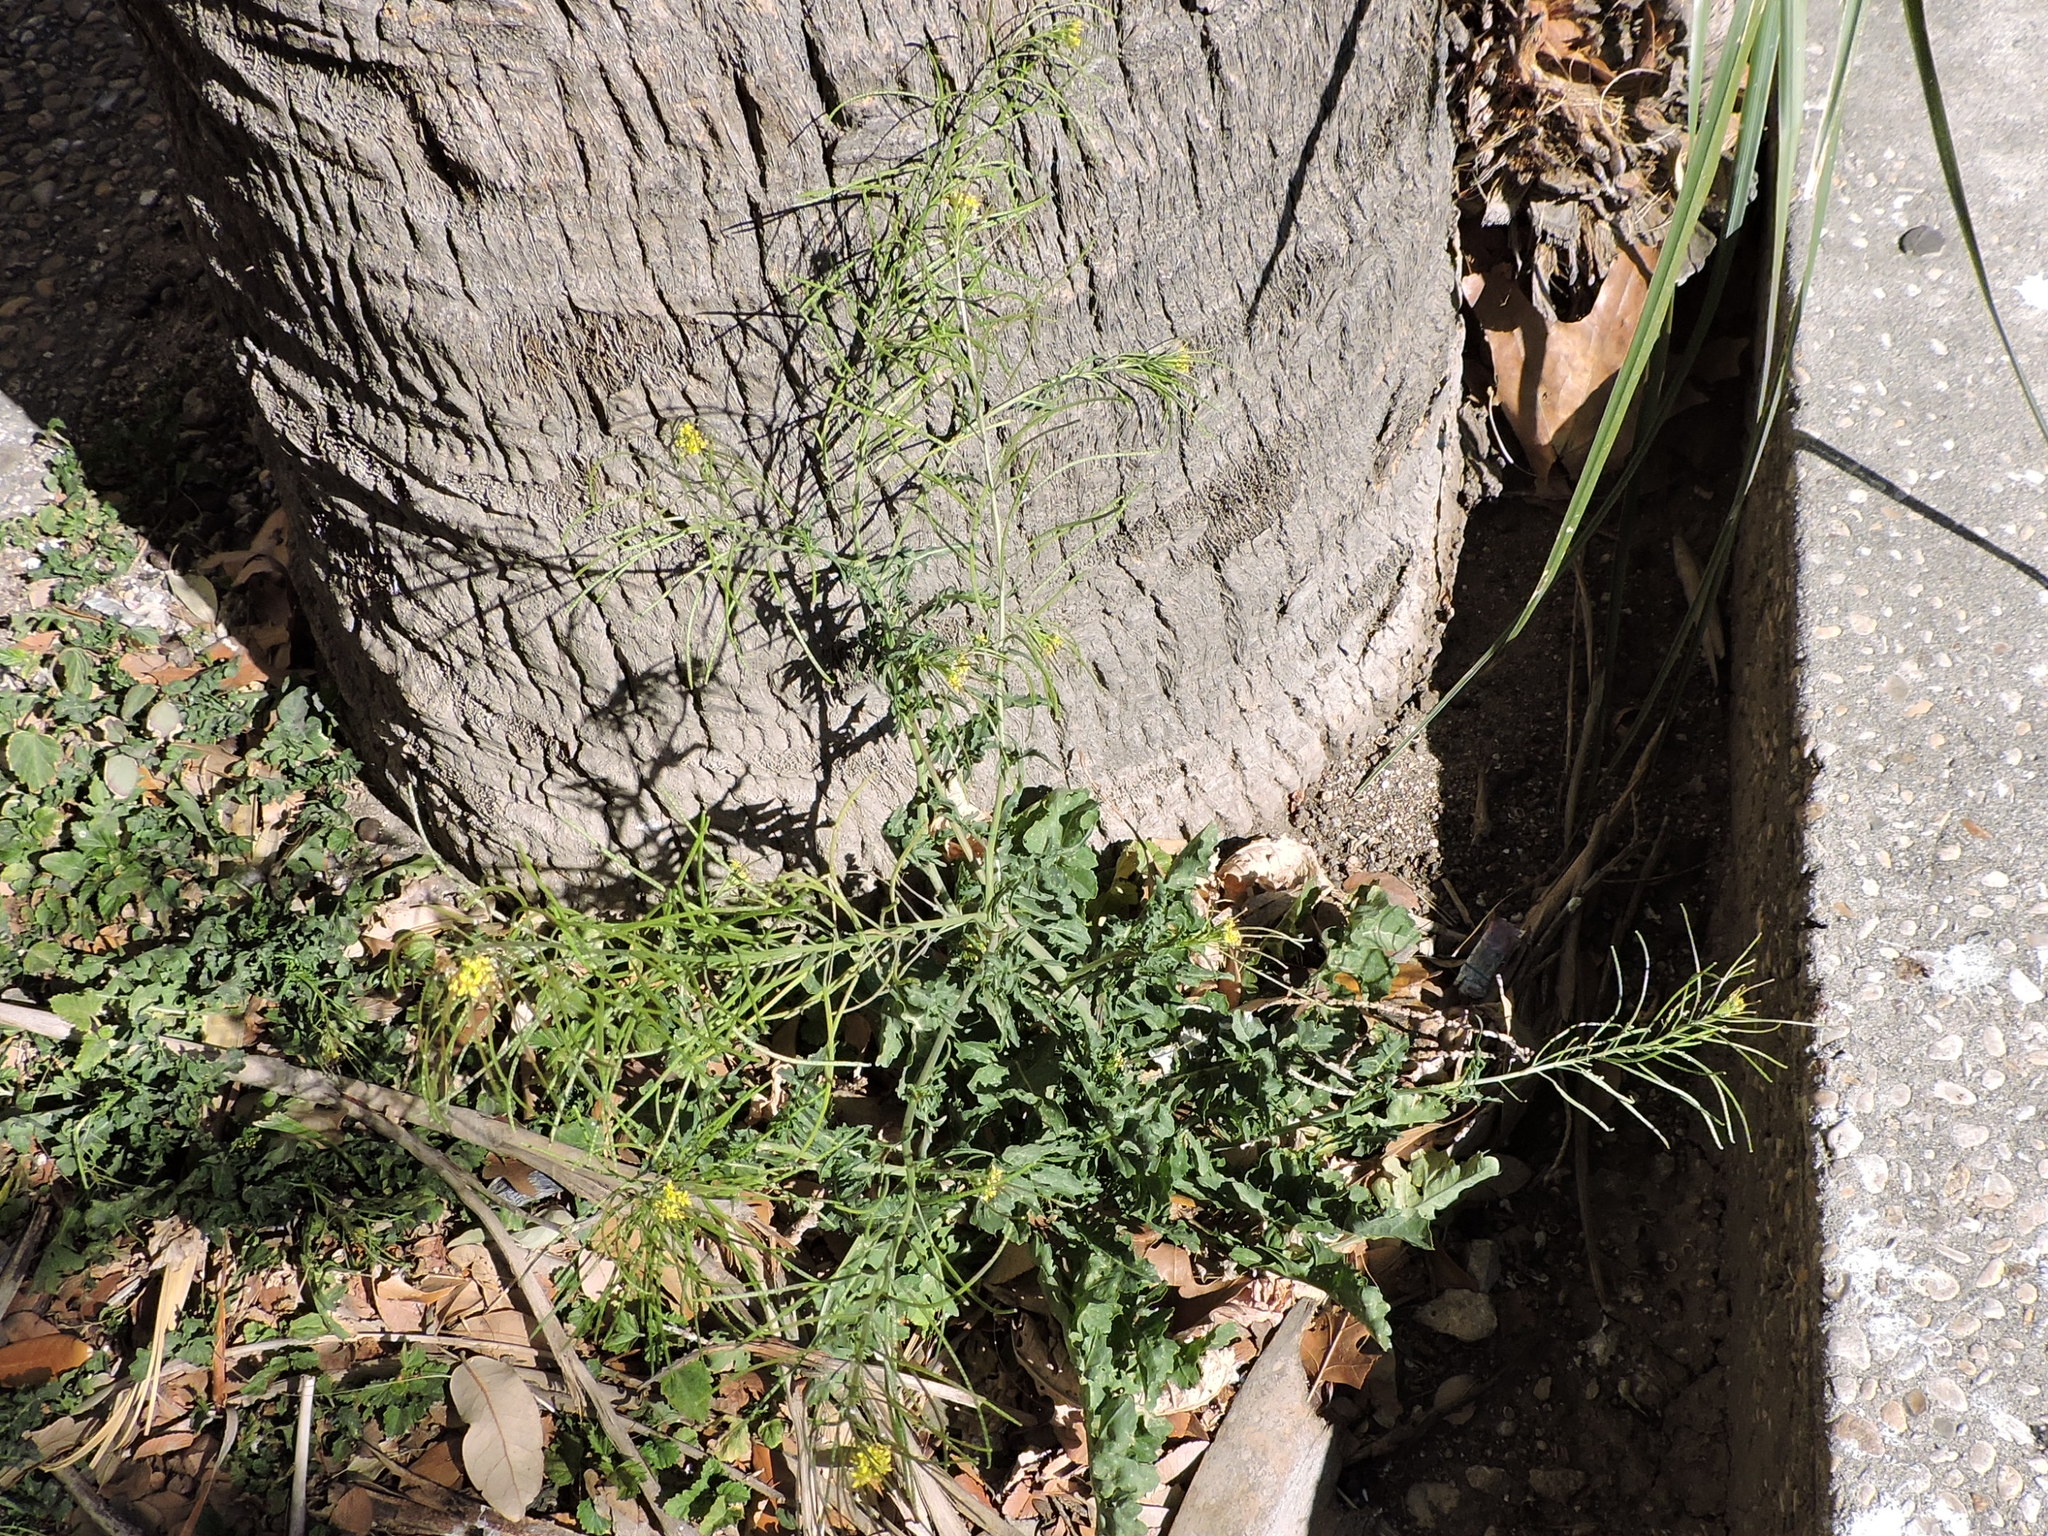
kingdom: Plantae
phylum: Tracheophyta
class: Magnoliopsida
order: Brassicales
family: Brassicaceae
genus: Sisymbrium
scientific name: Sisymbrium irio
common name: London rocket
